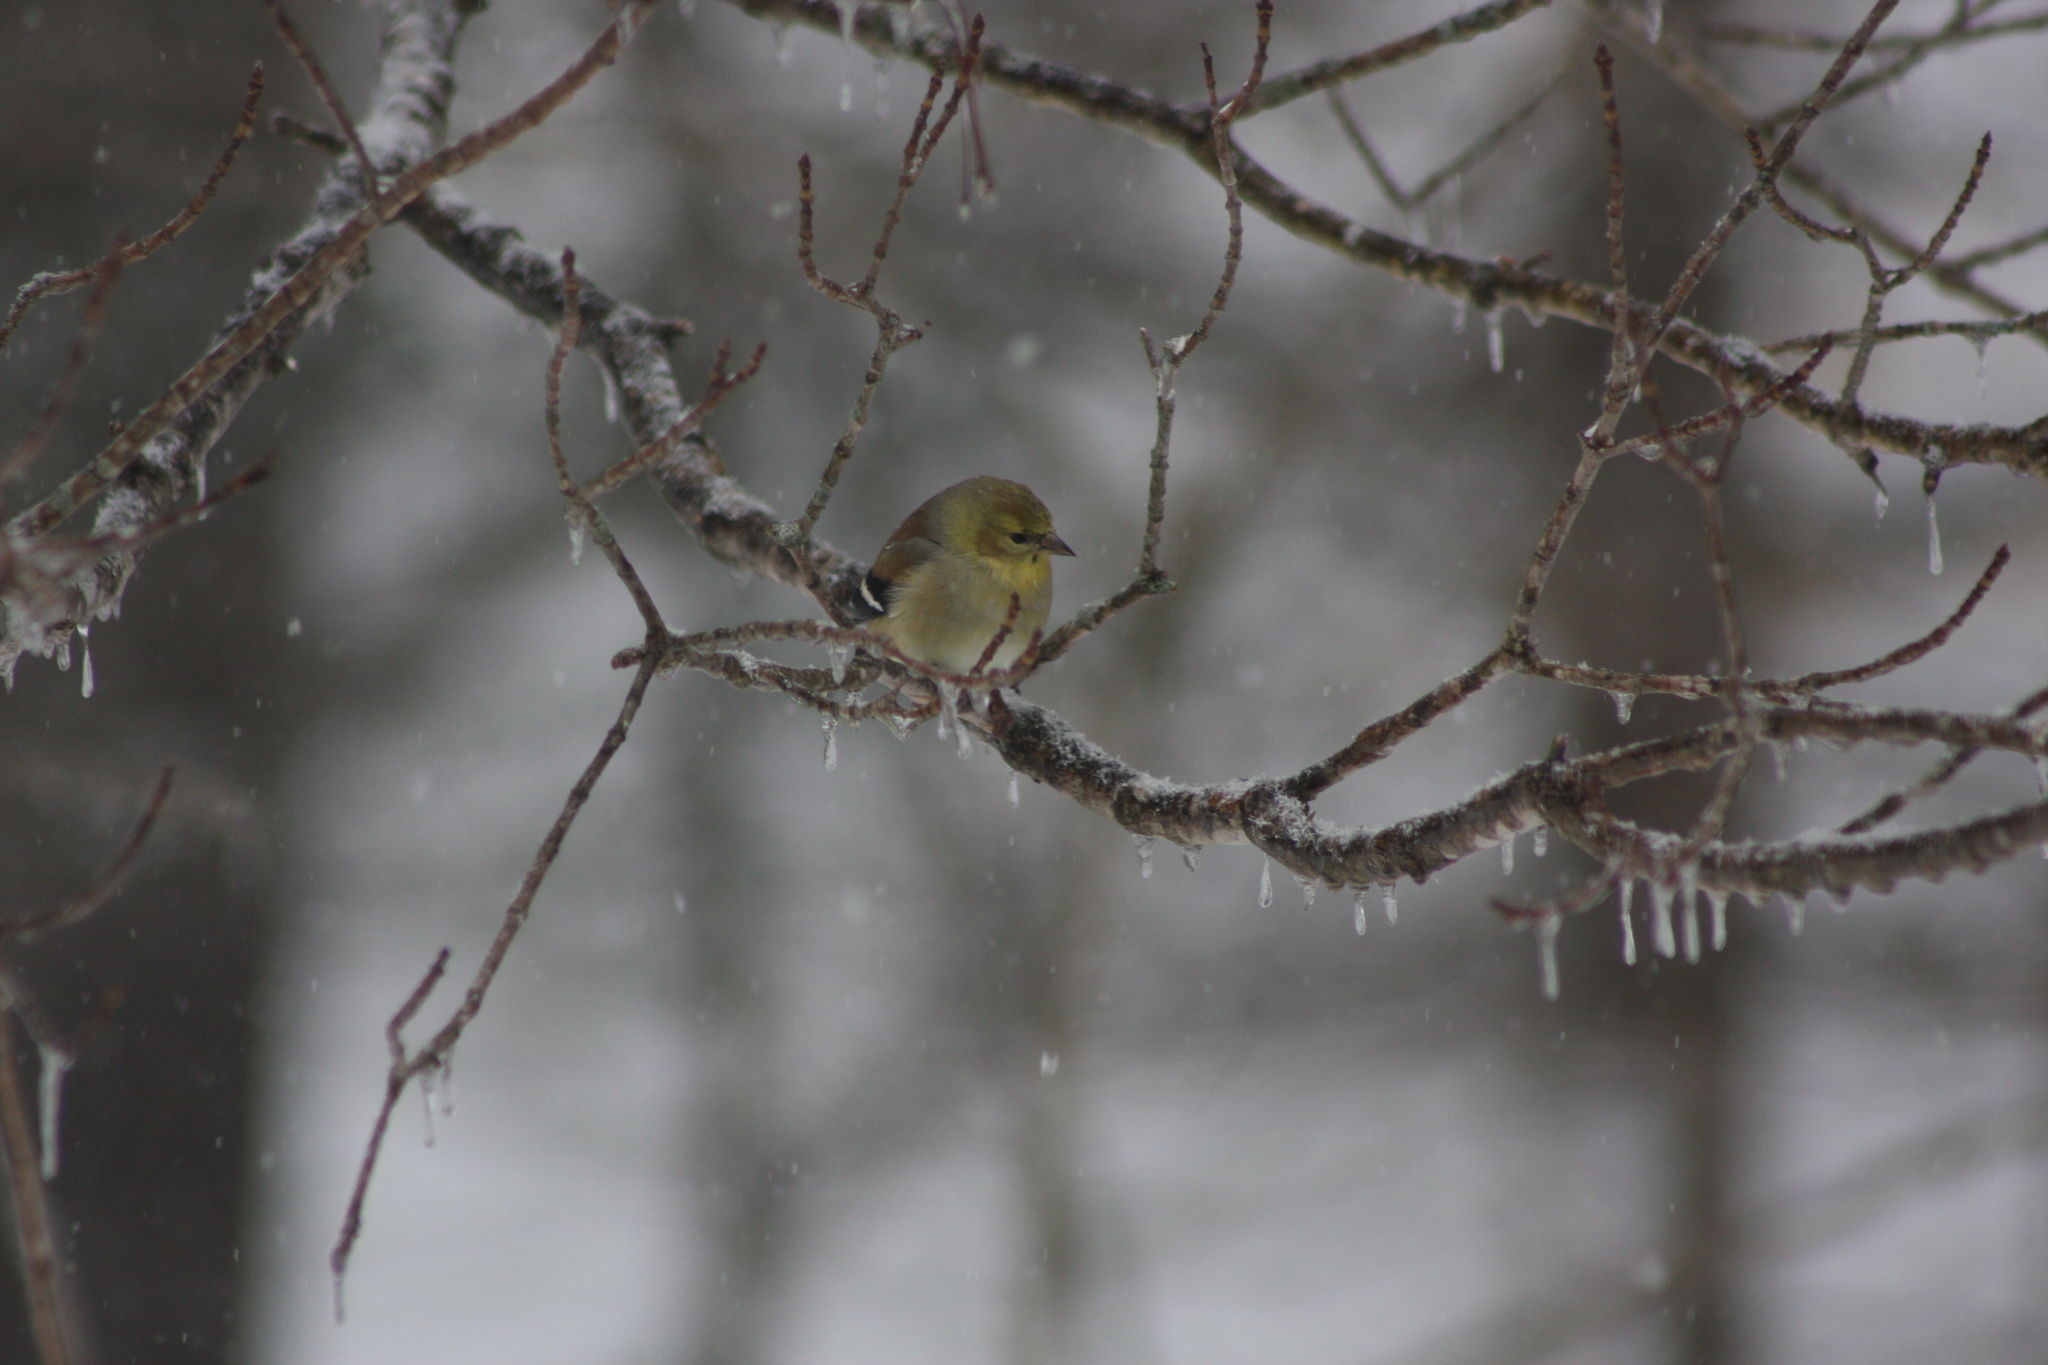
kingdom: Animalia
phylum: Chordata
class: Aves
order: Passeriformes
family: Fringillidae
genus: Spinus
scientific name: Spinus tristis
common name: American goldfinch
